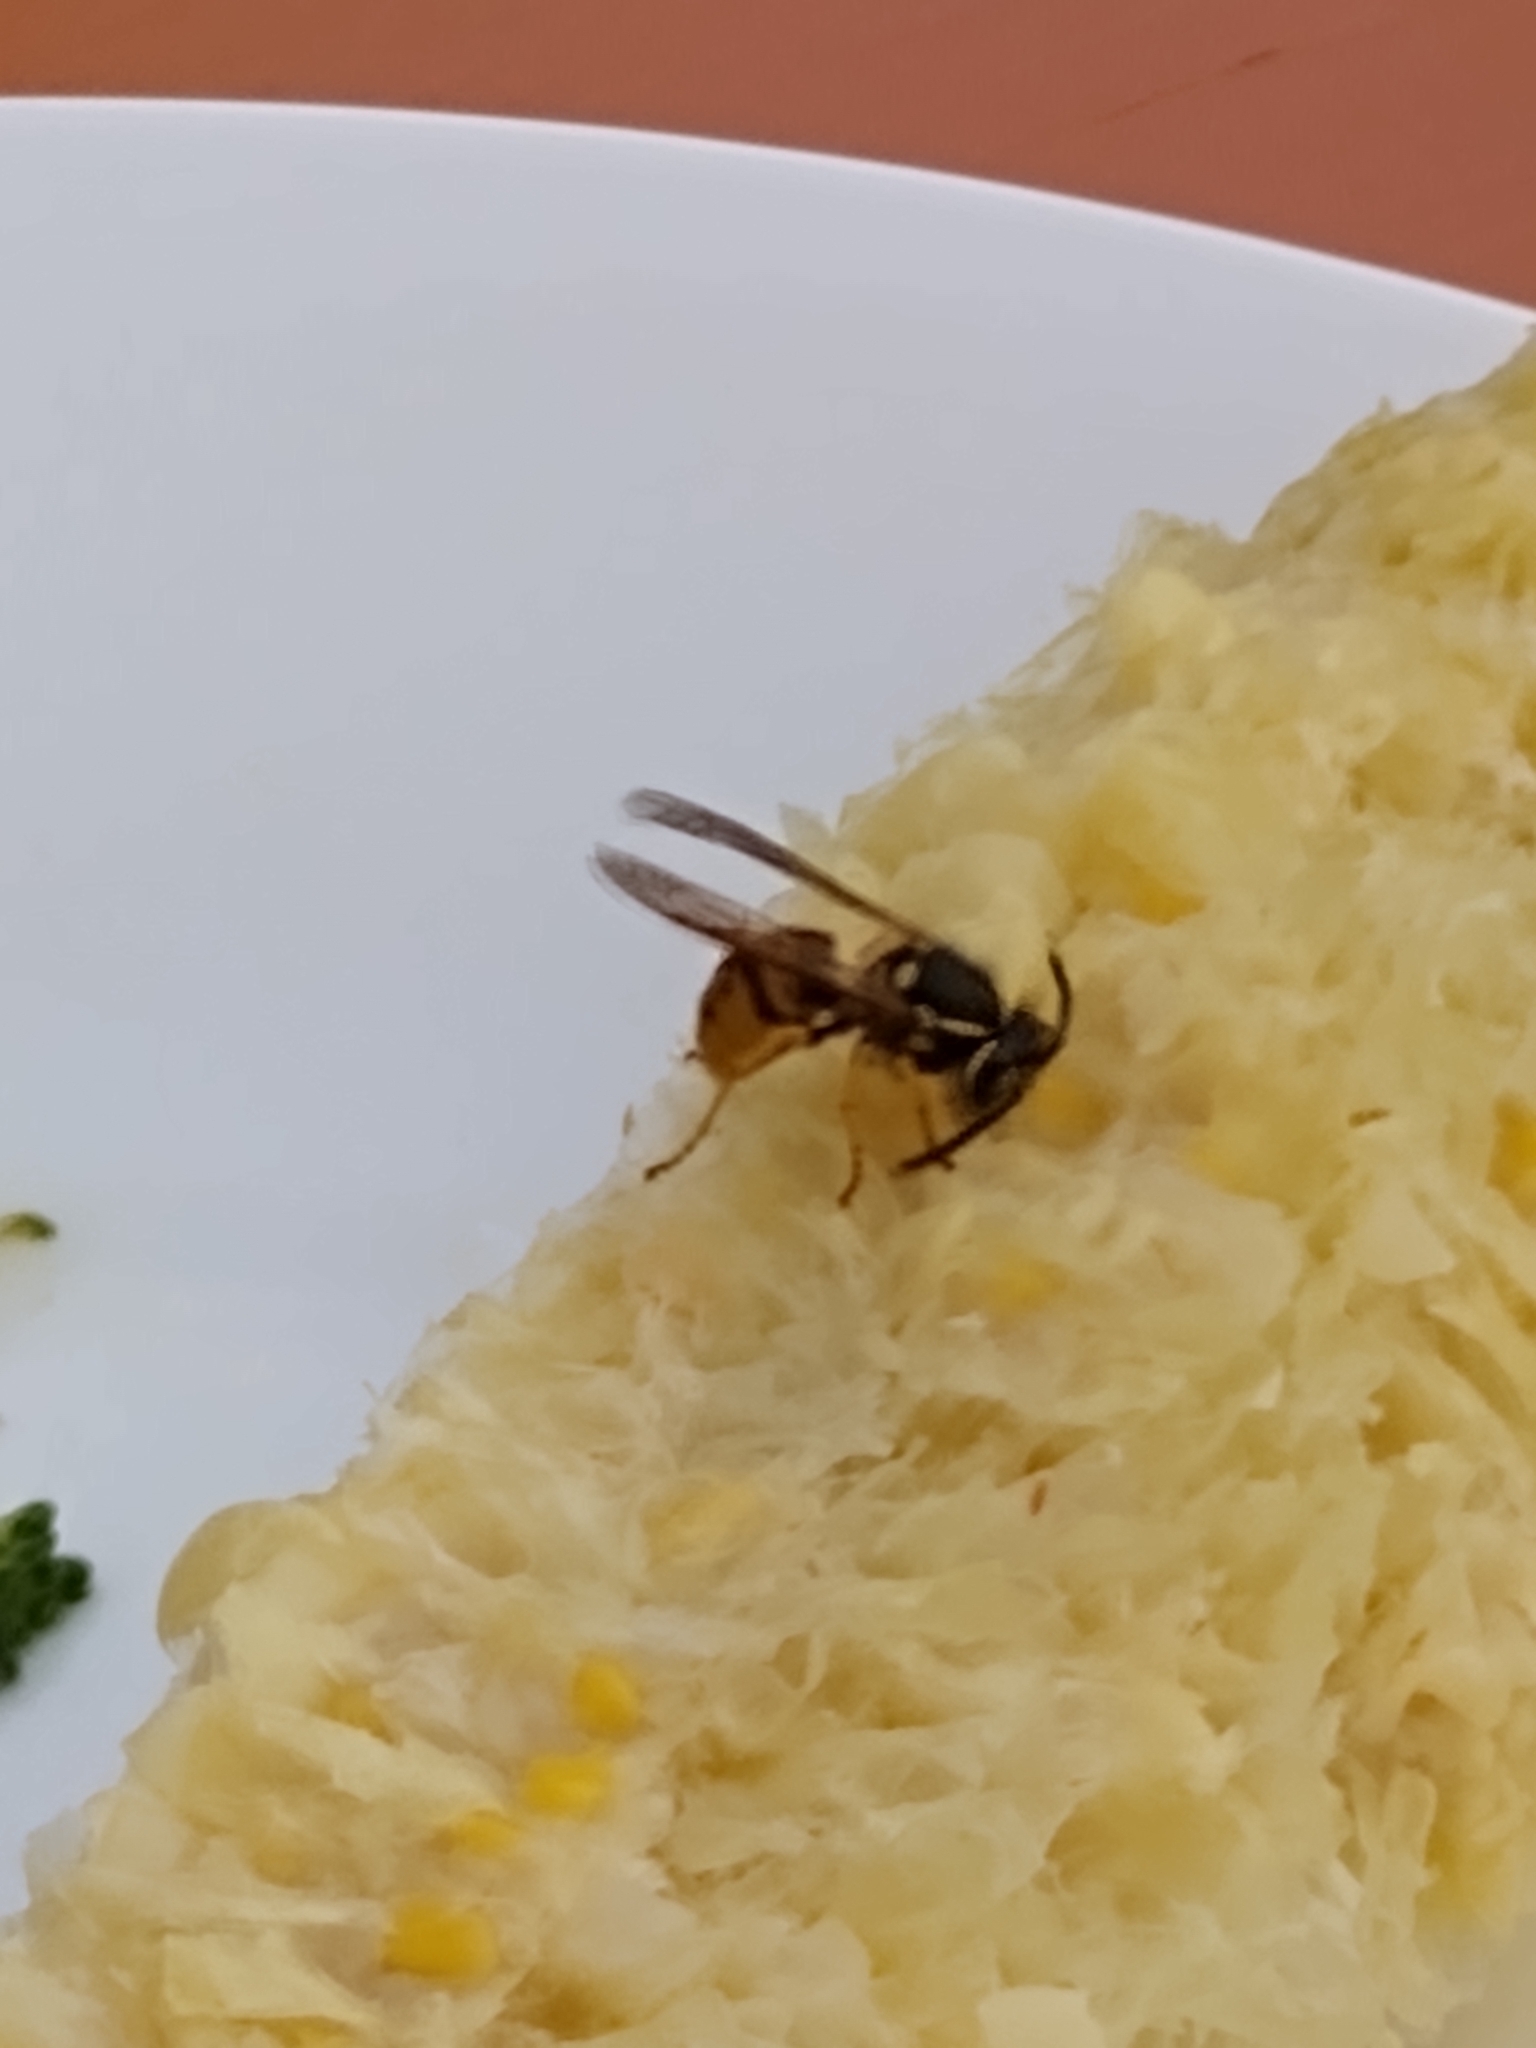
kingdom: Animalia
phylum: Arthropoda
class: Insecta
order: Hymenoptera
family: Vespidae
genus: Vespula
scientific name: Vespula germanica
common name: German wasp
